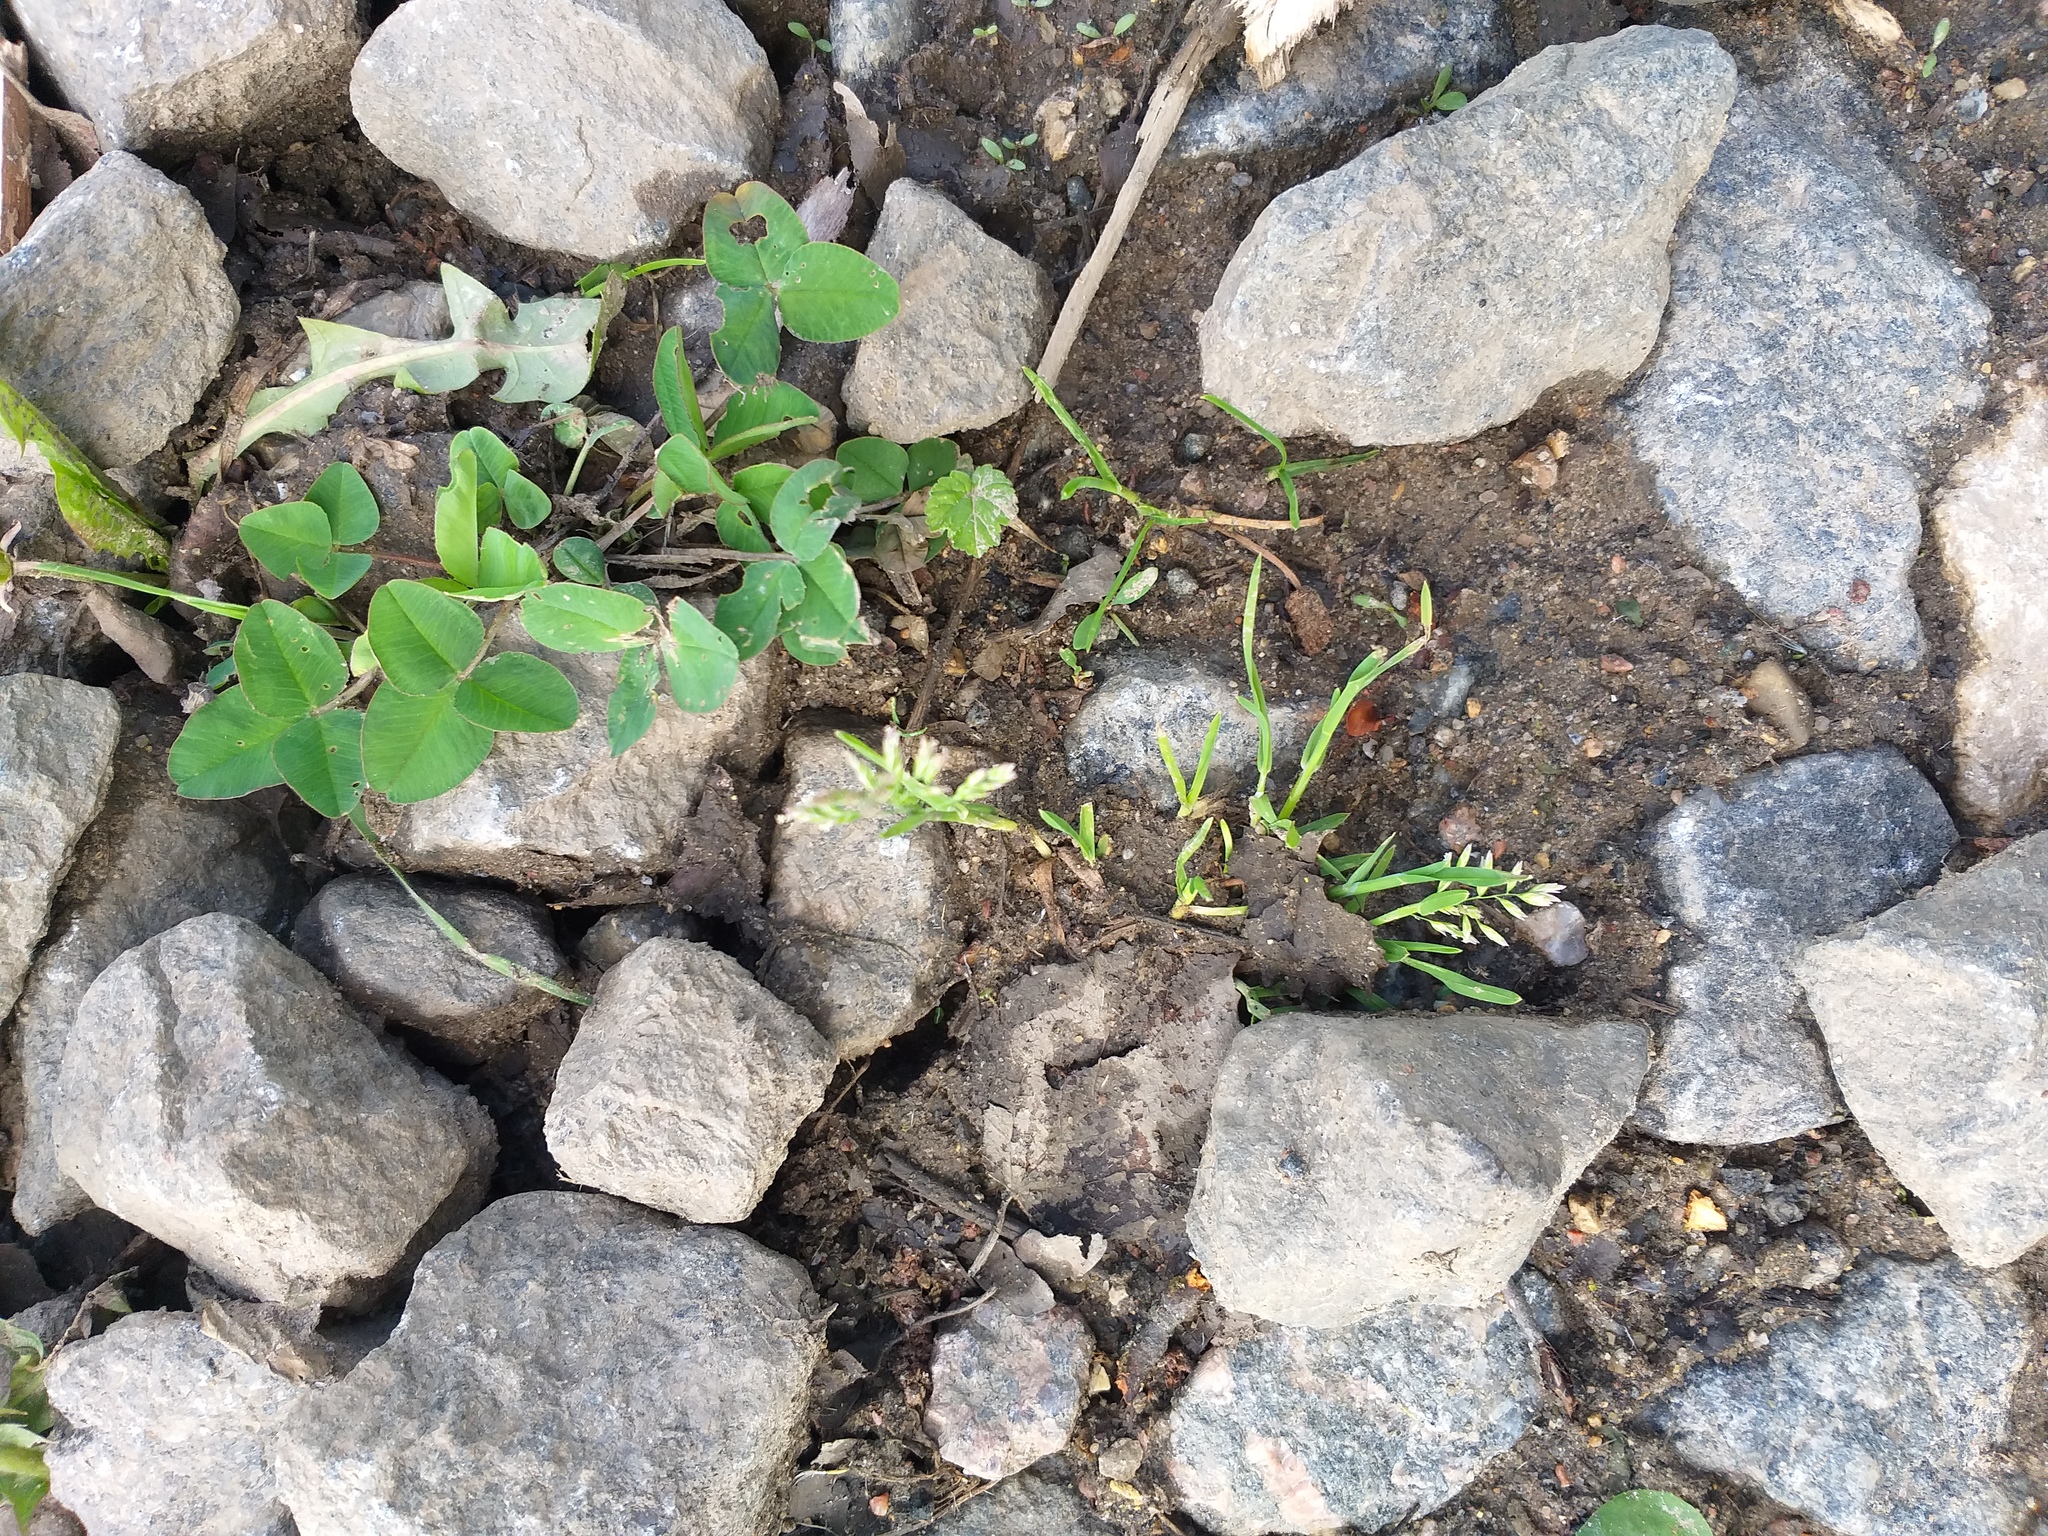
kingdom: Plantae
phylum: Tracheophyta
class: Liliopsida
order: Poales
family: Poaceae
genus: Poa
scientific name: Poa annua
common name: Annual bluegrass
